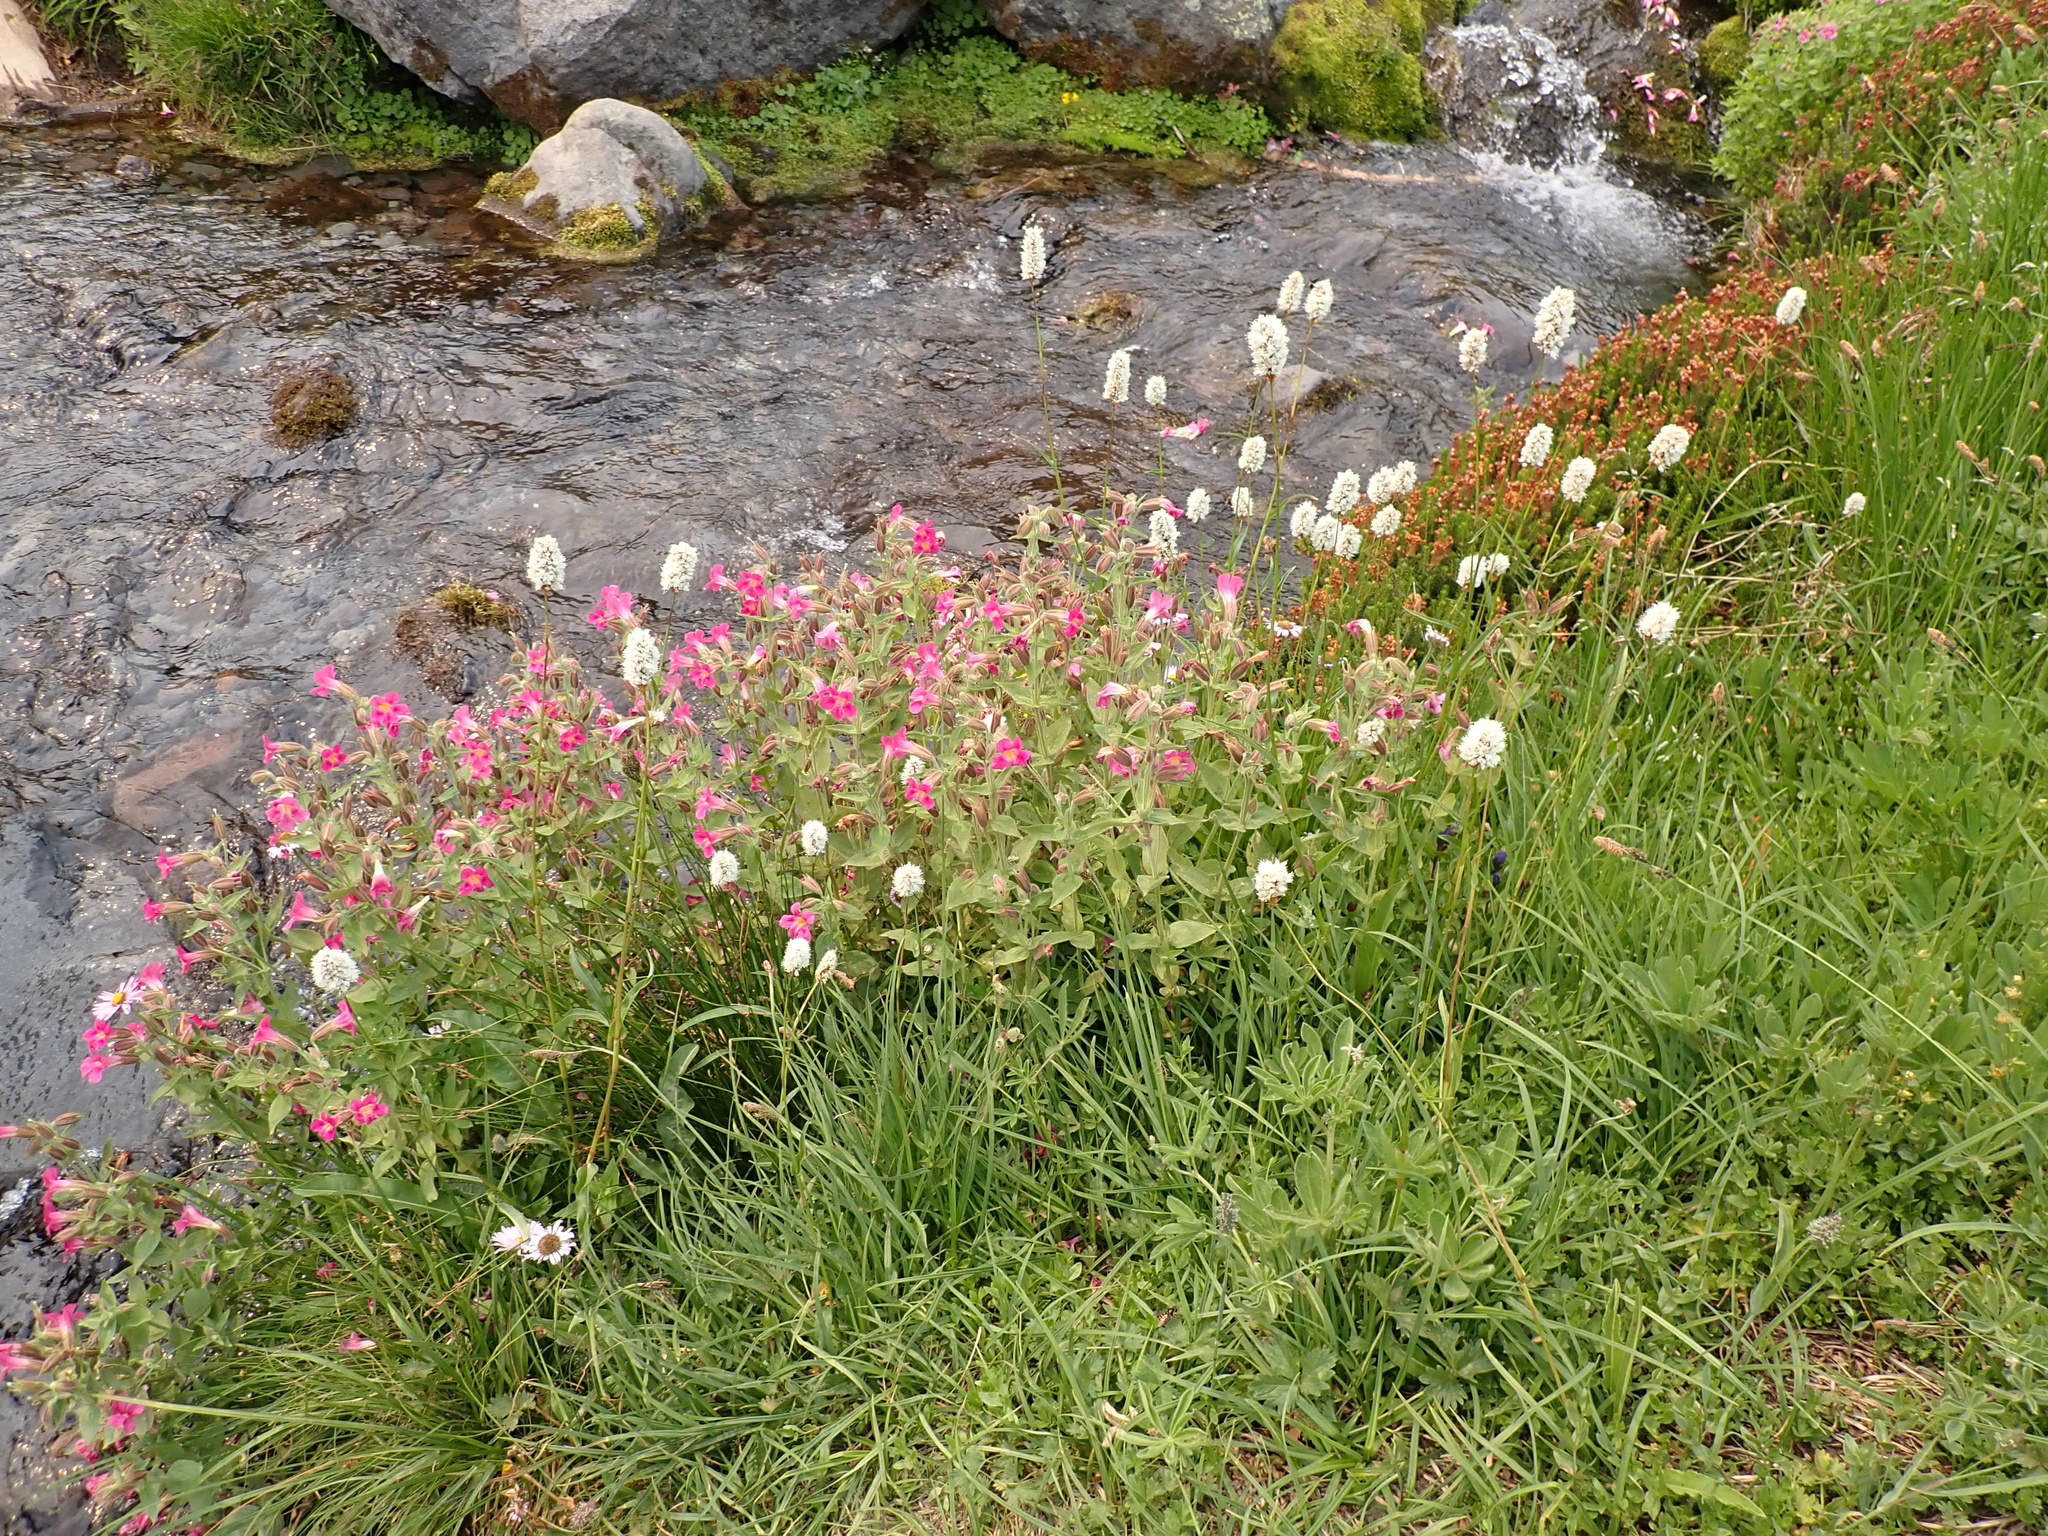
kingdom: Plantae
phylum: Tracheophyta
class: Magnoliopsida
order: Lamiales
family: Phrymaceae
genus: Erythranthe
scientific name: Erythranthe lewisii
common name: Lewis's monkey-flower
